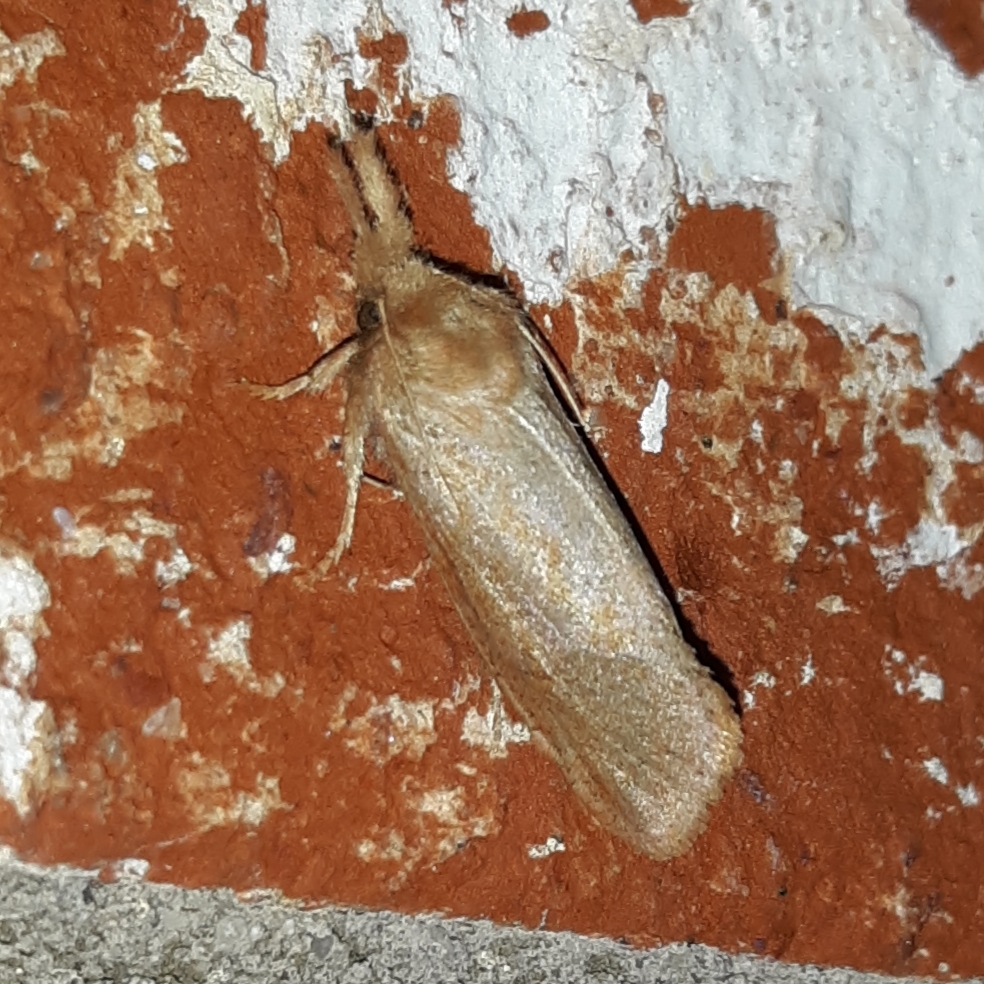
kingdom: Animalia
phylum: Arthropoda
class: Insecta
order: Lepidoptera
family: Tineidae
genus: Acrolophus
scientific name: Acrolophus plumifrontella
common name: Eastern grass tubeworm moth
